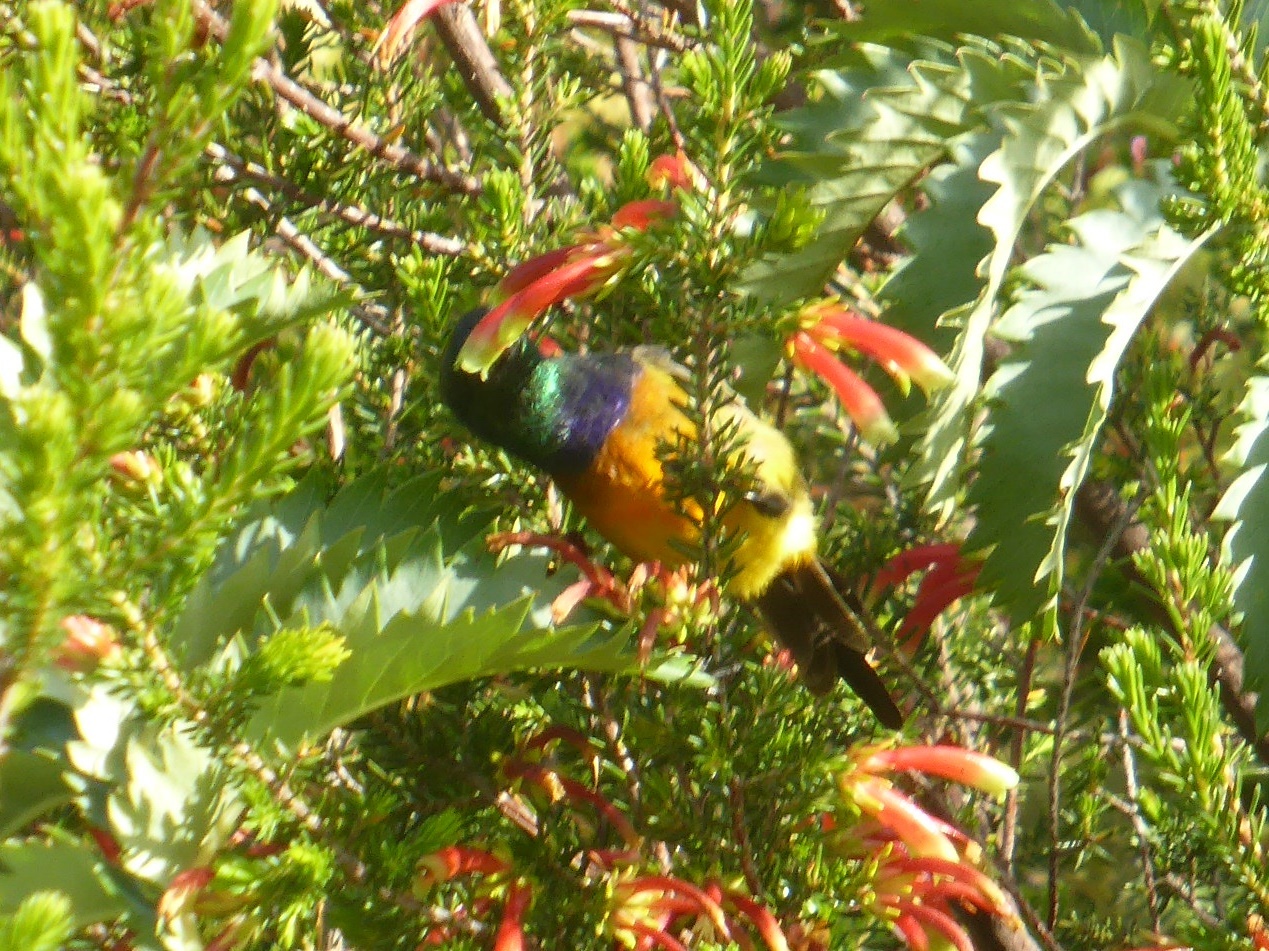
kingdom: Animalia
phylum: Chordata
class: Aves
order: Passeriformes
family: Nectariniidae
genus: Anthobaphes
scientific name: Anthobaphes violacea
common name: Orange-breasted sunbird
